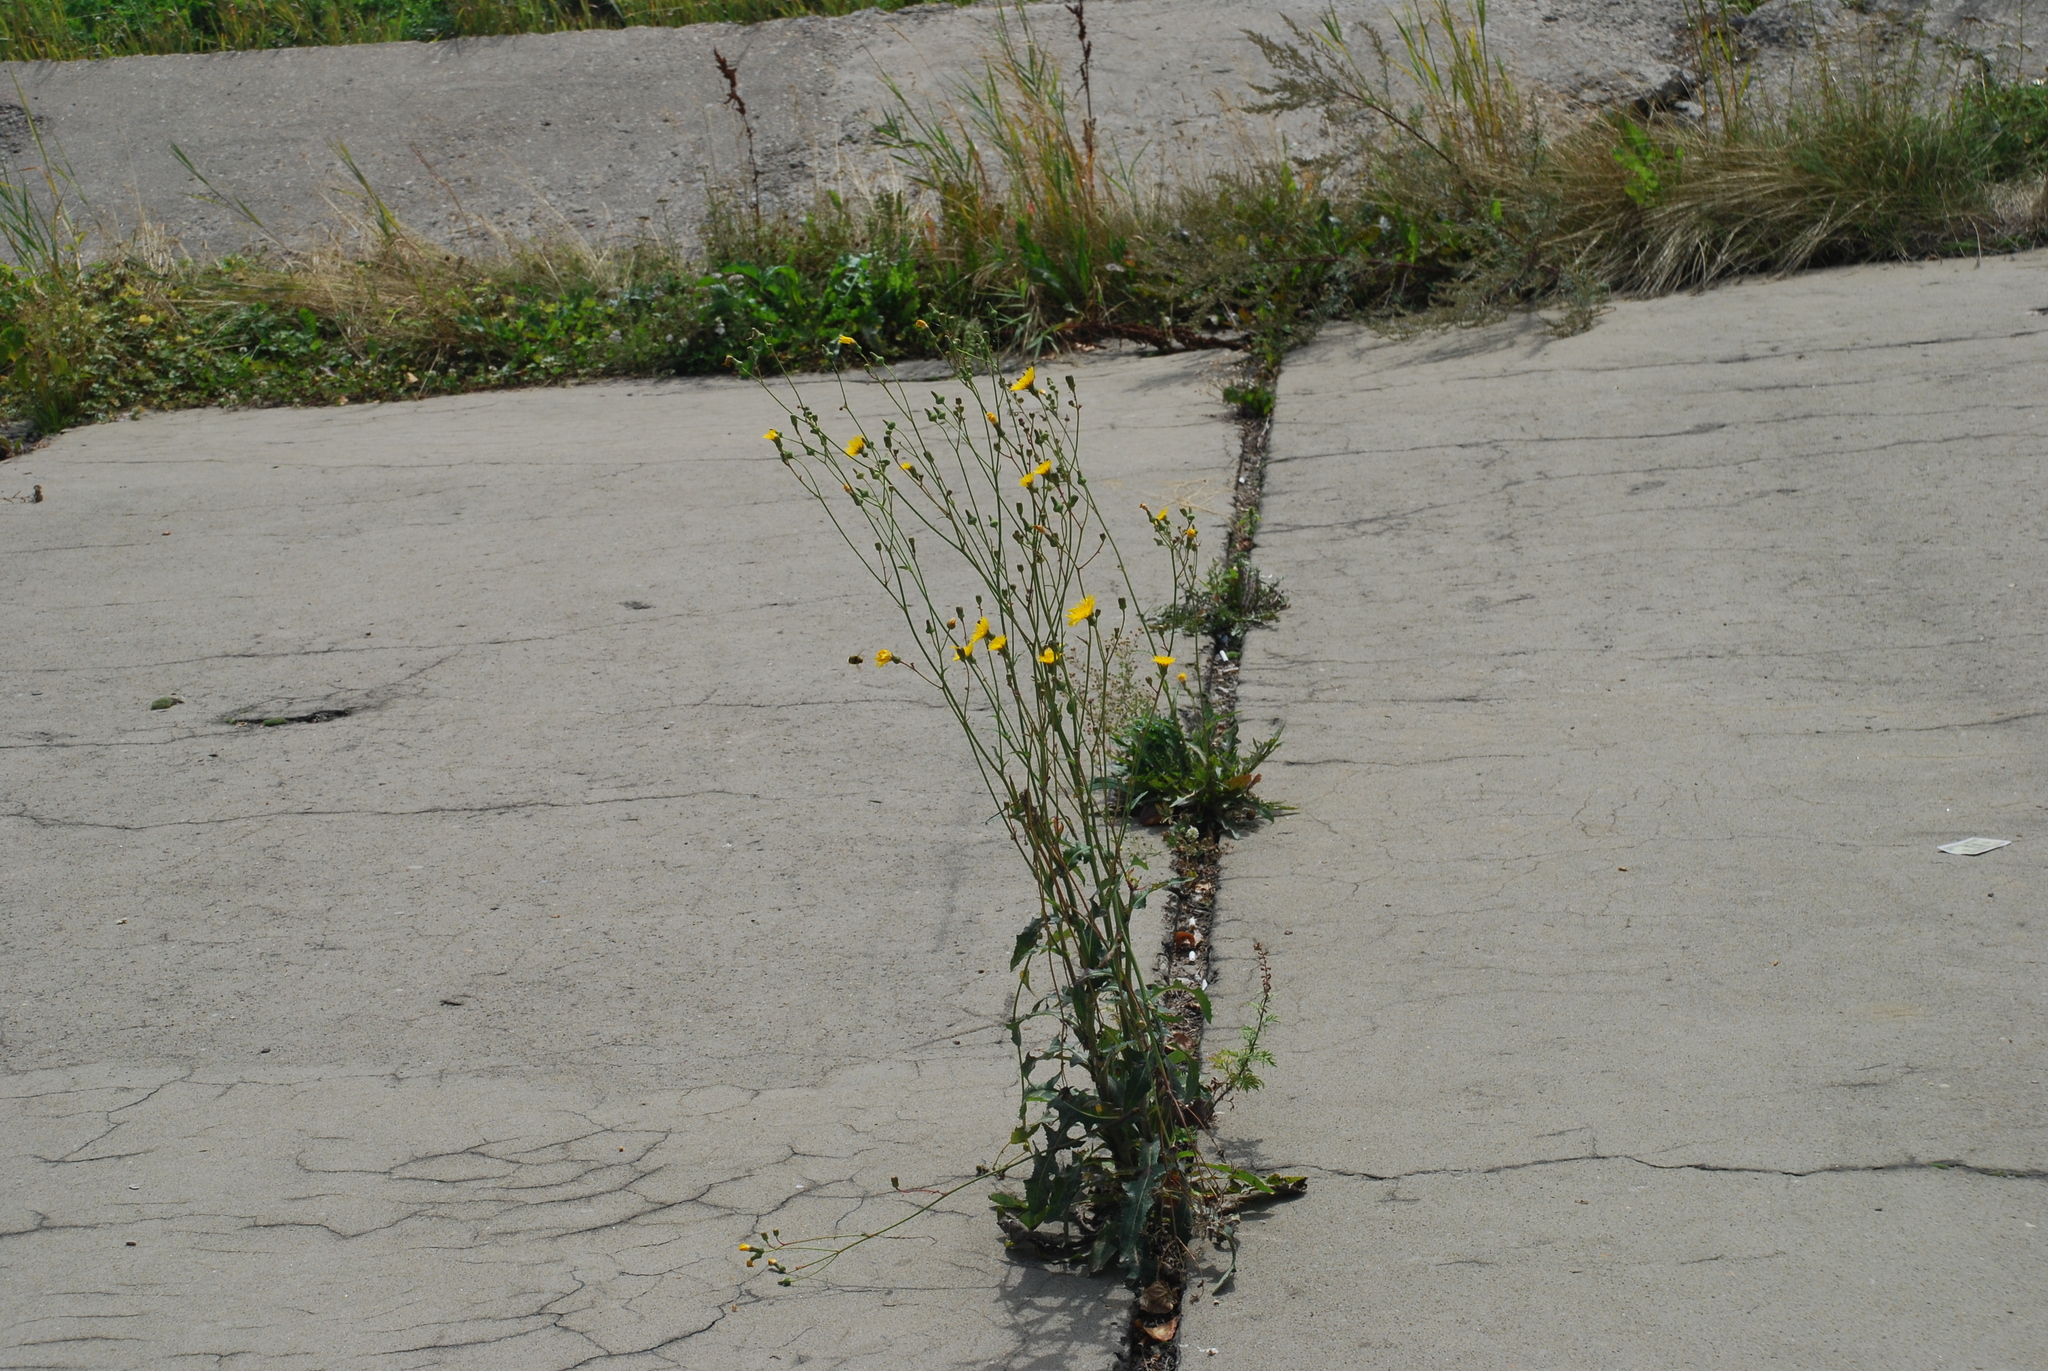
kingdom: Plantae
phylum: Tracheophyta
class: Magnoliopsida
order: Asterales
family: Asteraceae
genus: Sonchus
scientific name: Sonchus arvensis
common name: Perennial sow-thistle
